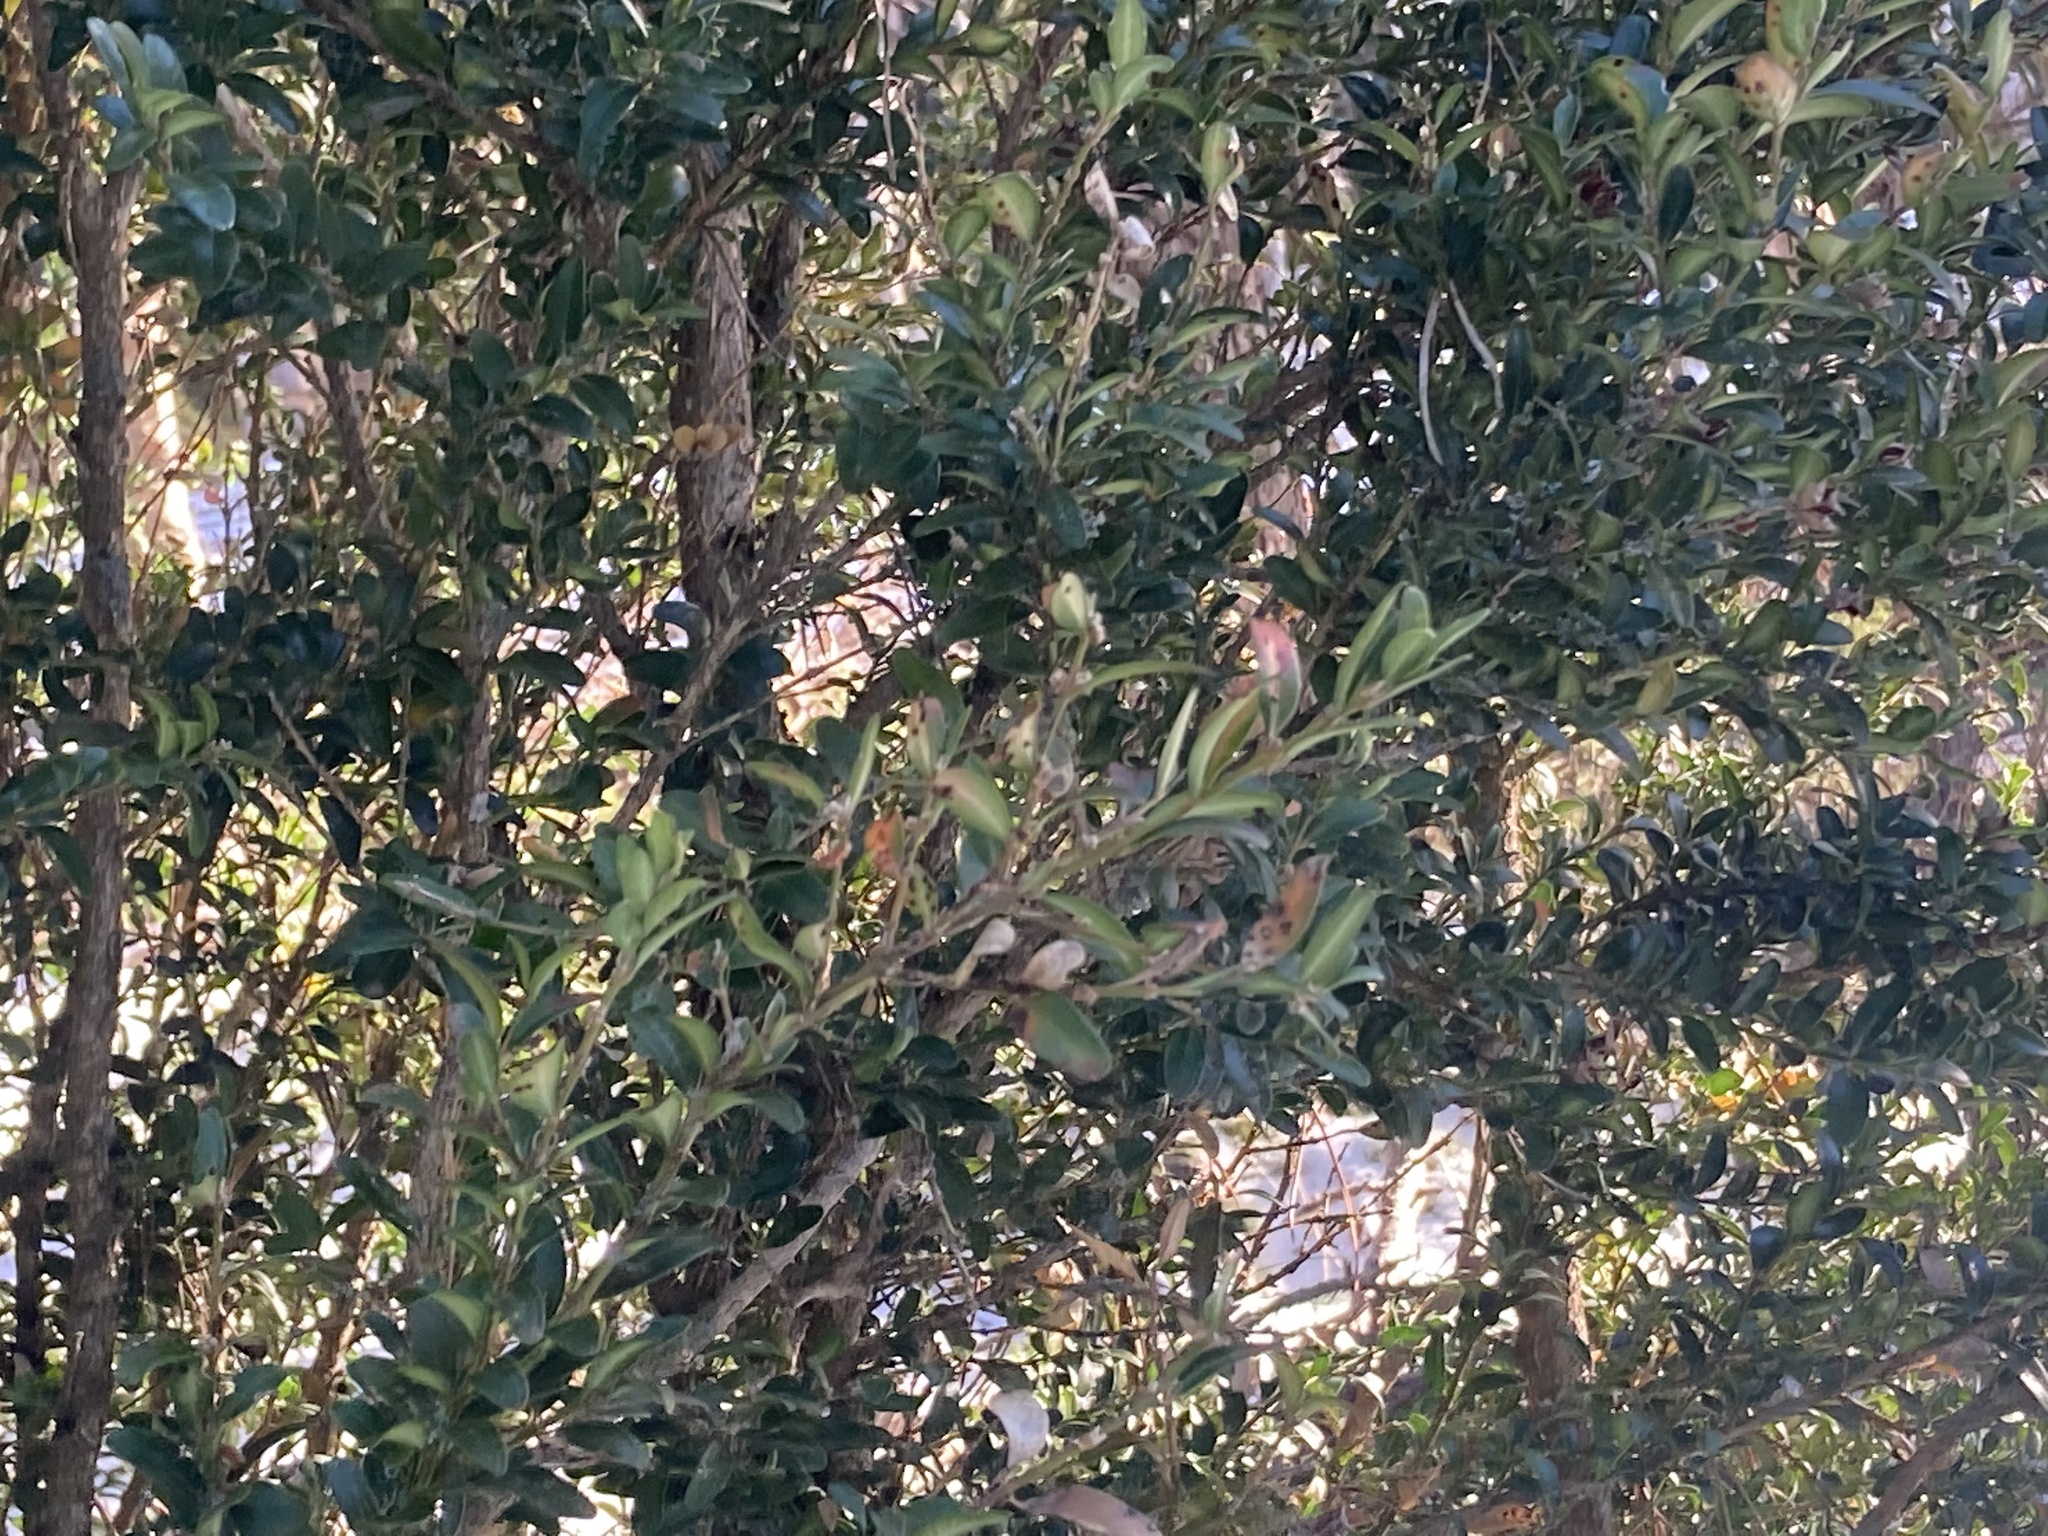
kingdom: Plantae
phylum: Tracheophyta
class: Magnoliopsida
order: Buxales
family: Buxaceae
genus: Buxus
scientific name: Buxus sempervirens
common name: Box
